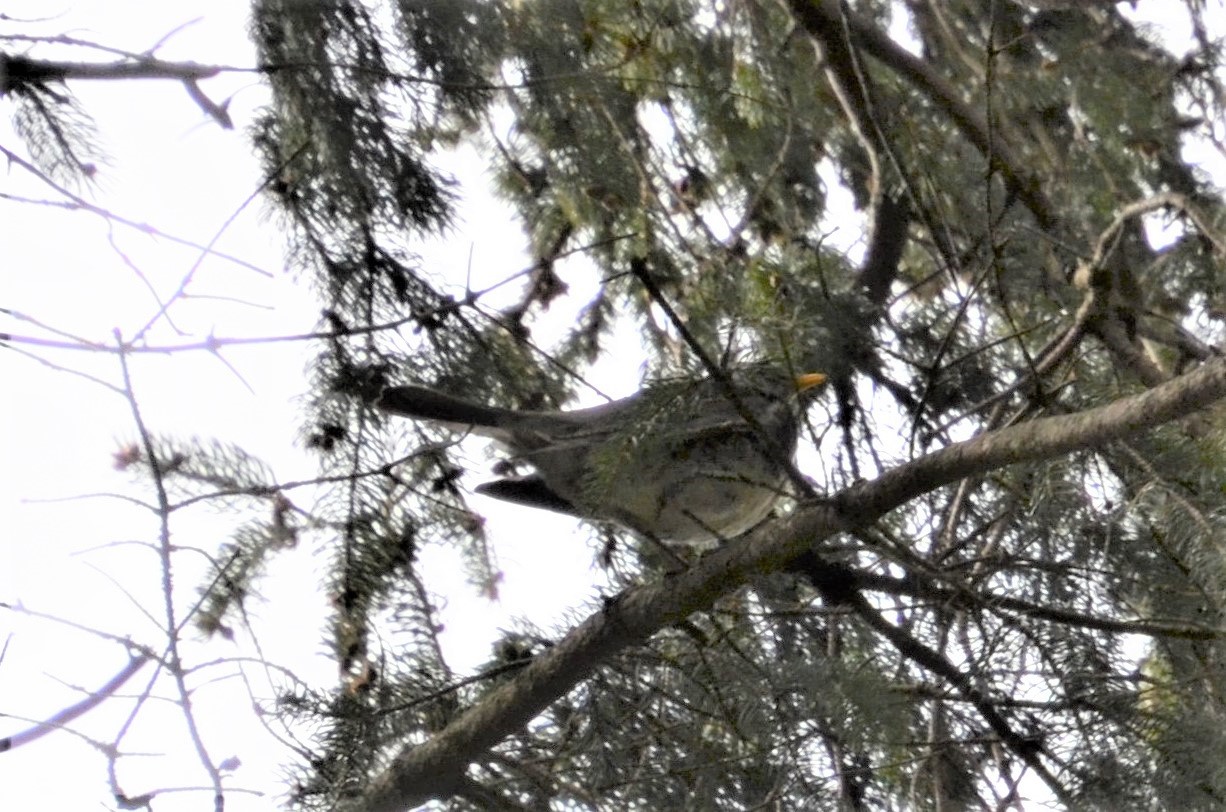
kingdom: Animalia
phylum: Chordata
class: Aves
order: Passeriformes
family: Turdidae
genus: Turdus
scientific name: Turdus pilaris
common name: Fieldfare
